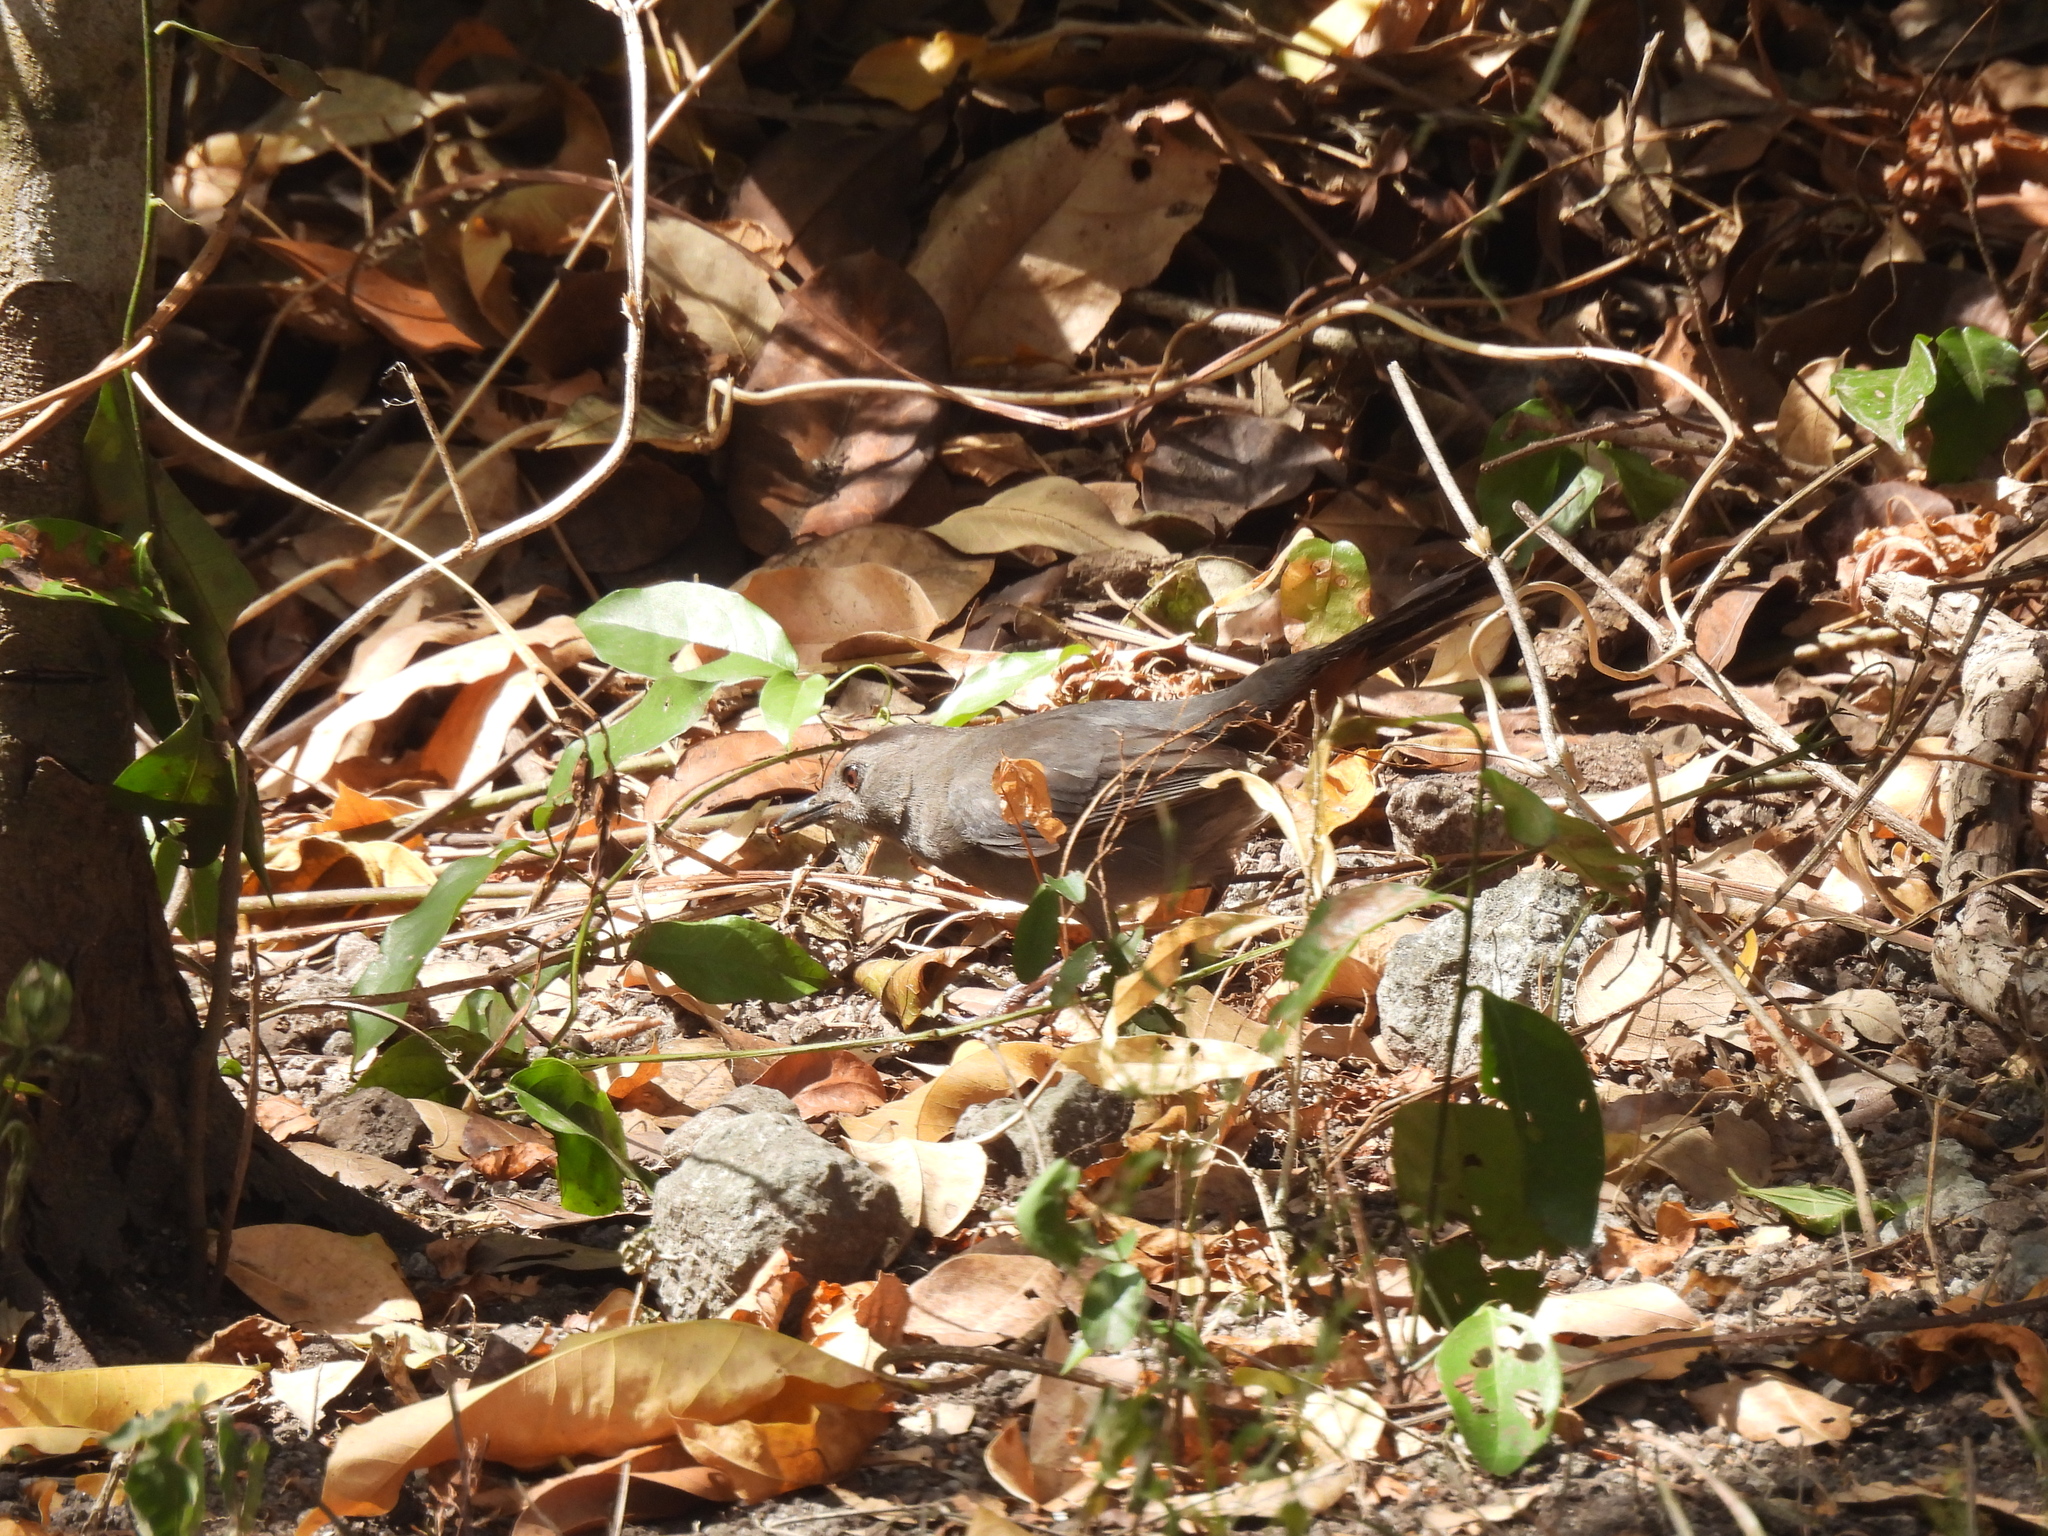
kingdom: Animalia
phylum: Chordata
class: Aves
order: Passeriformes
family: Mimidae
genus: Dumetella
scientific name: Dumetella carolinensis
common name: Gray catbird
